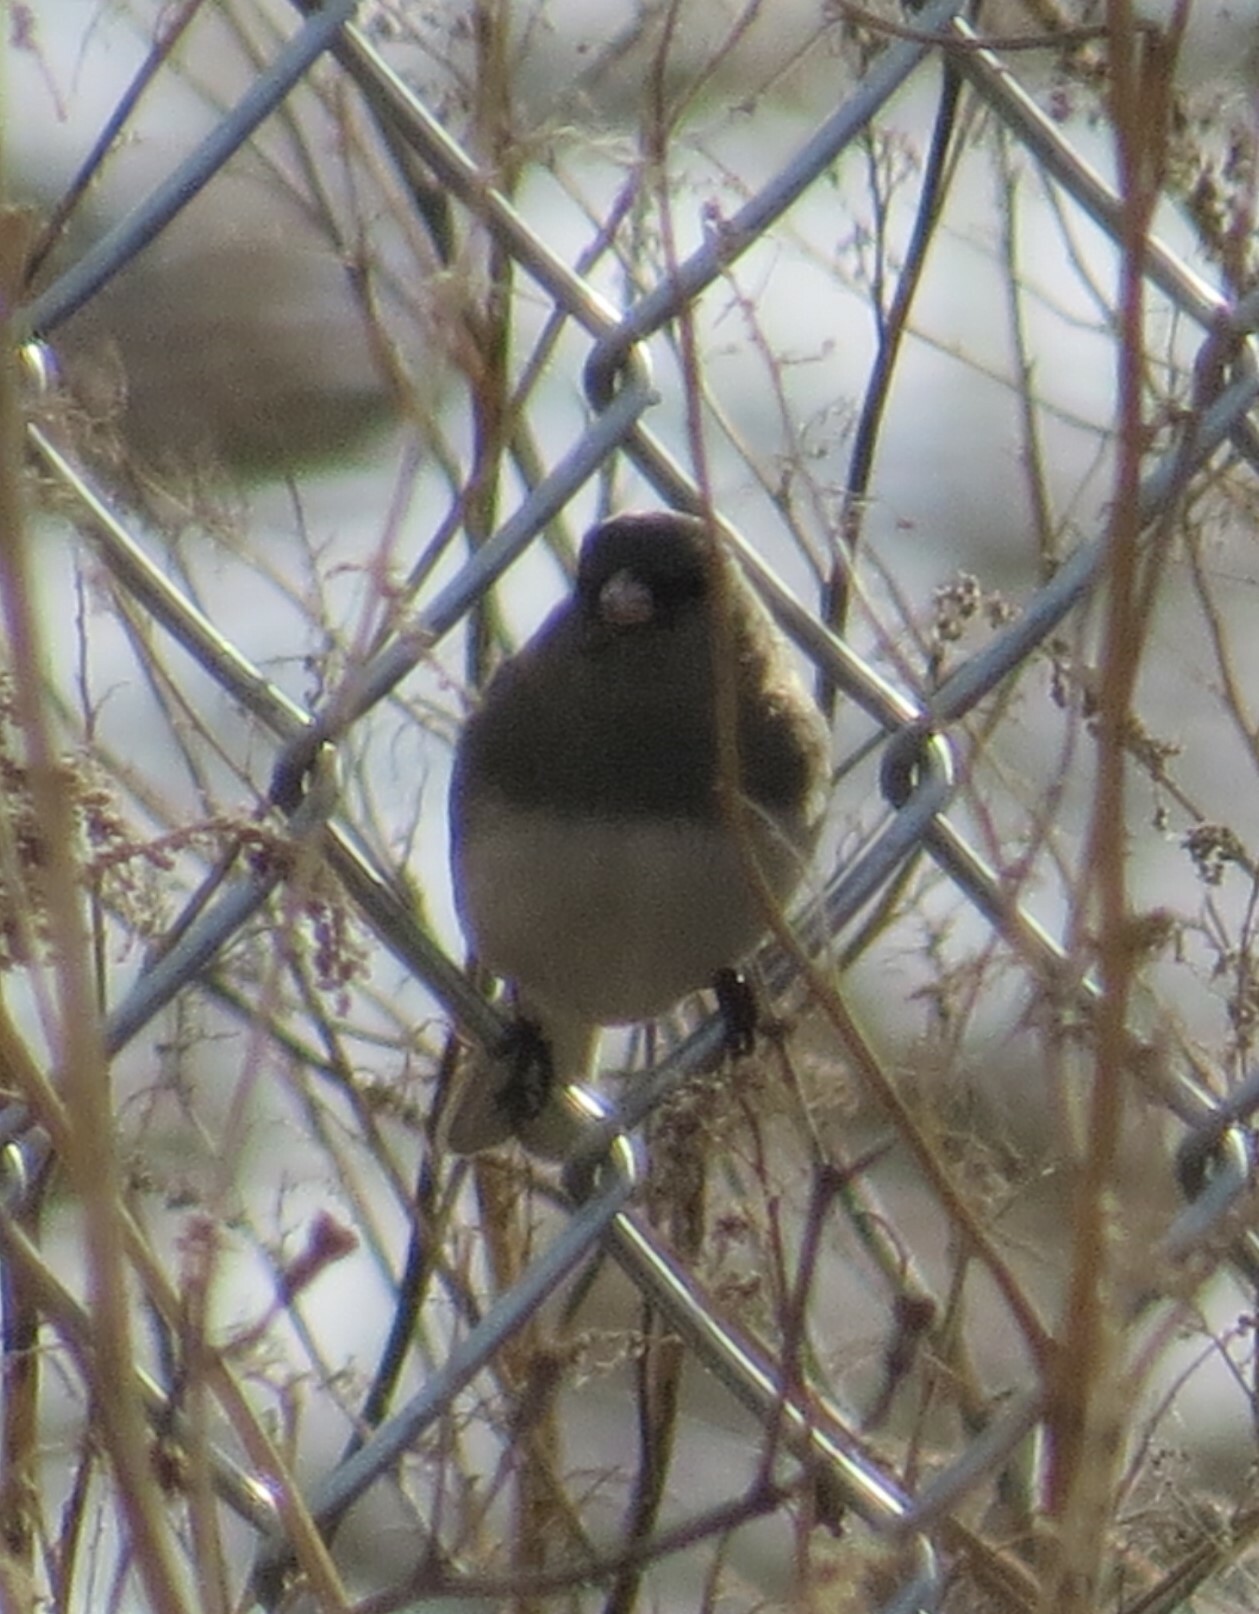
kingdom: Animalia
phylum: Chordata
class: Aves
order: Passeriformes
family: Passerellidae
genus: Junco
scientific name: Junco hyemalis
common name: Dark-eyed junco
